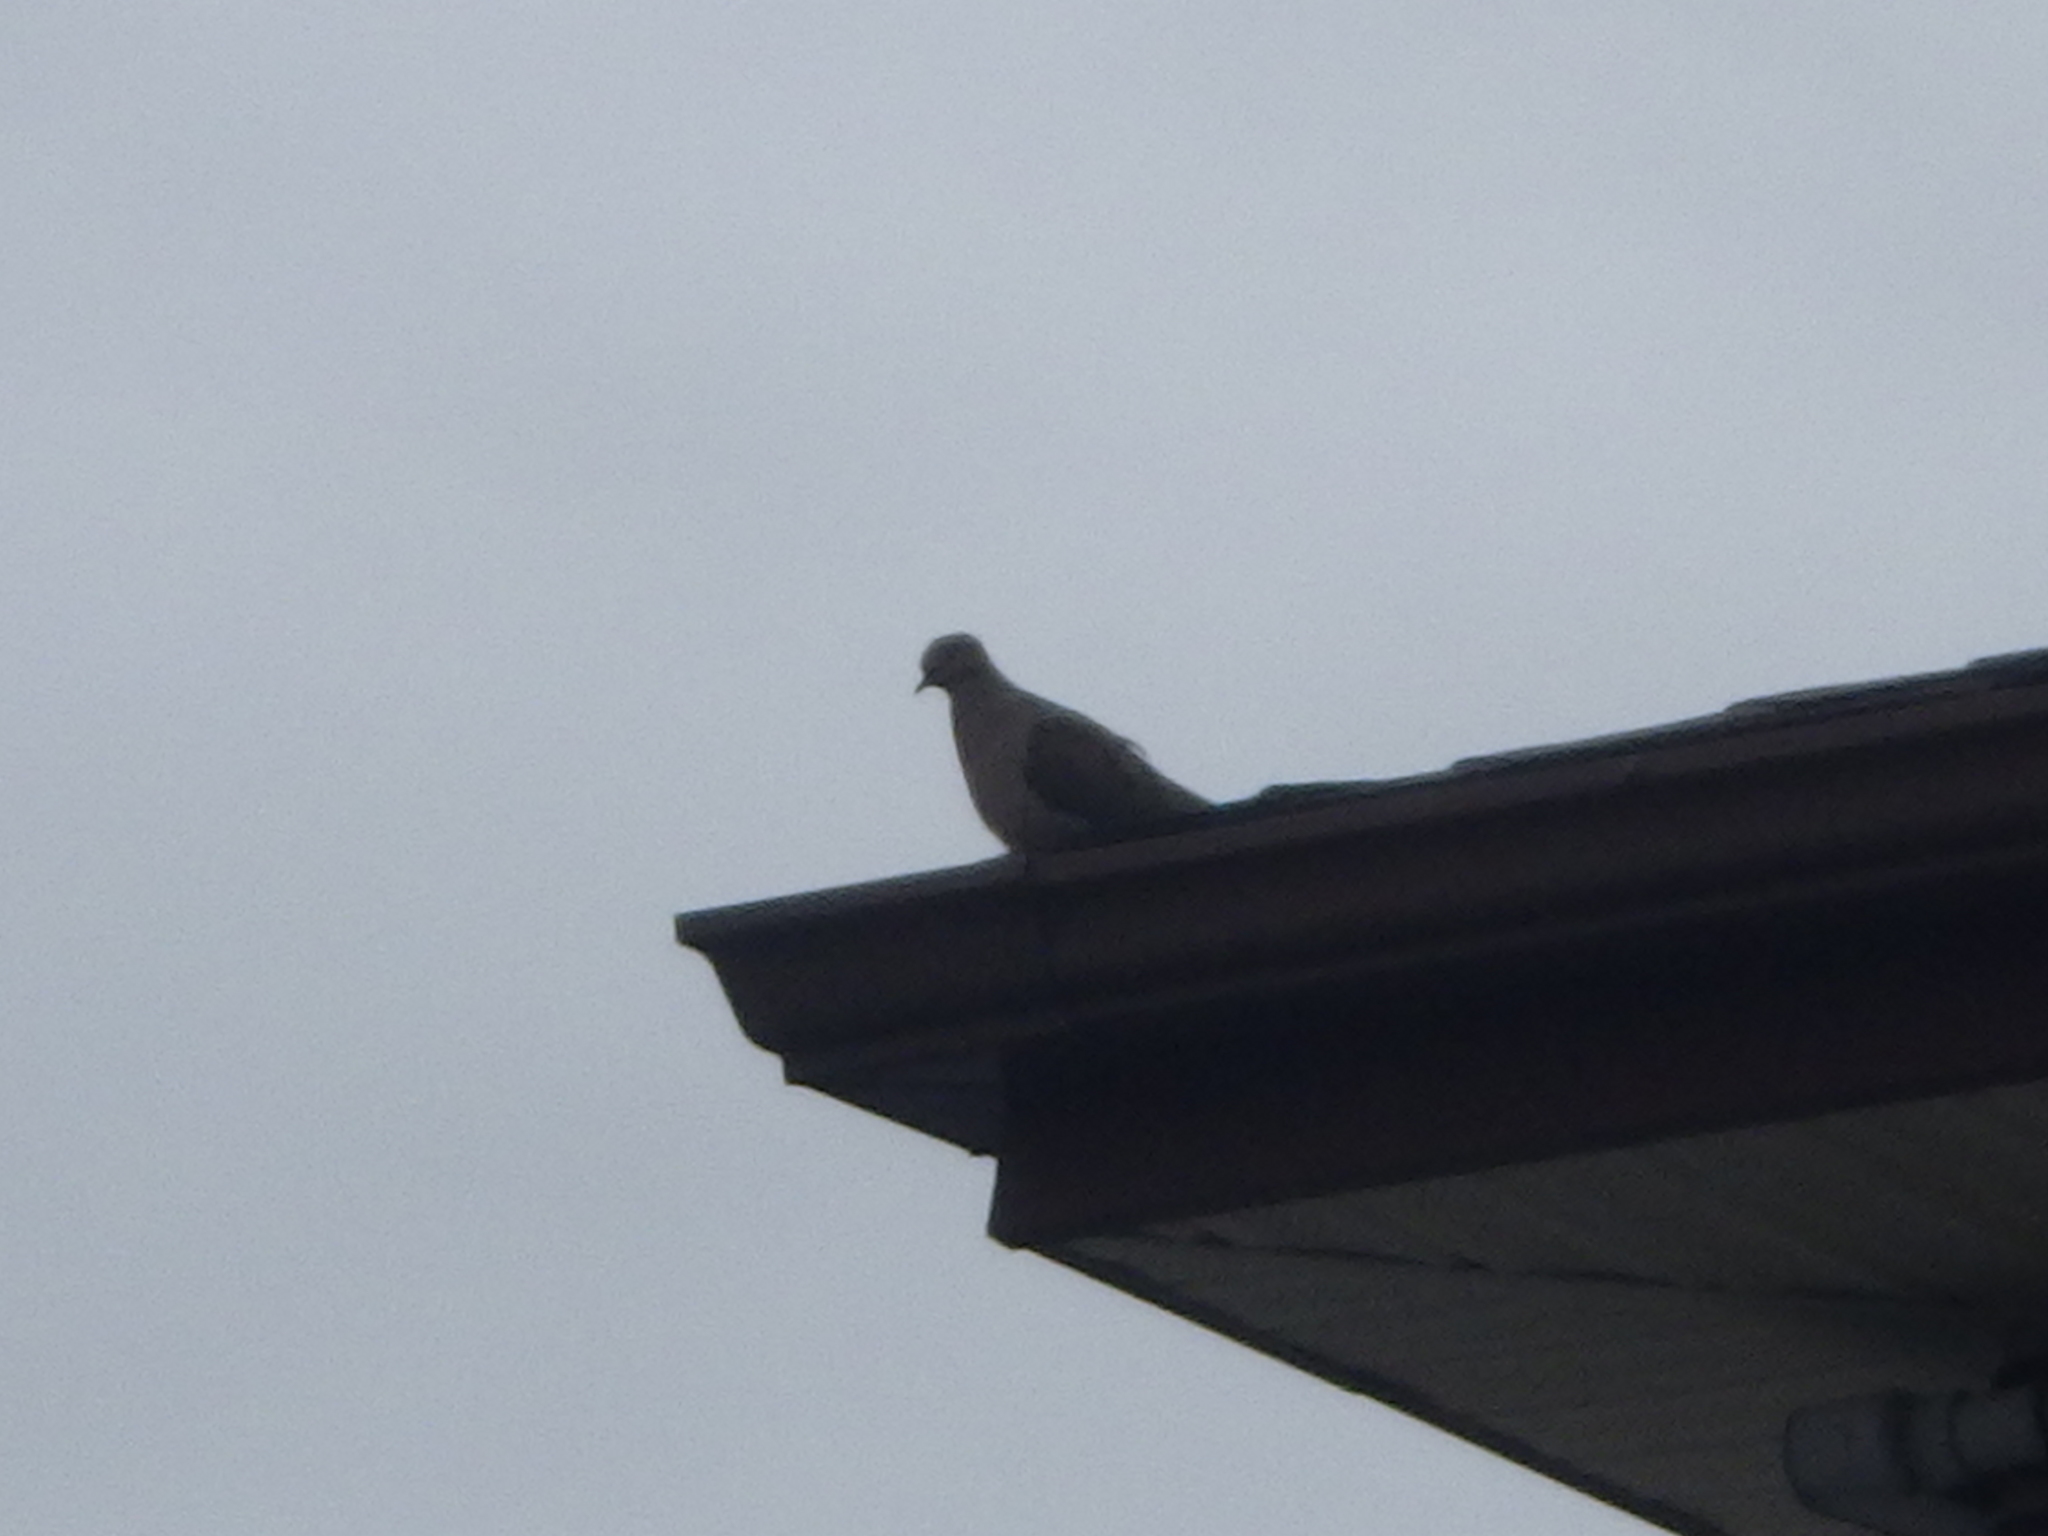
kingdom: Animalia
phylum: Chordata
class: Aves
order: Columbiformes
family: Columbidae
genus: Zenaida
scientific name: Zenaida macroura
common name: Mourning dove
